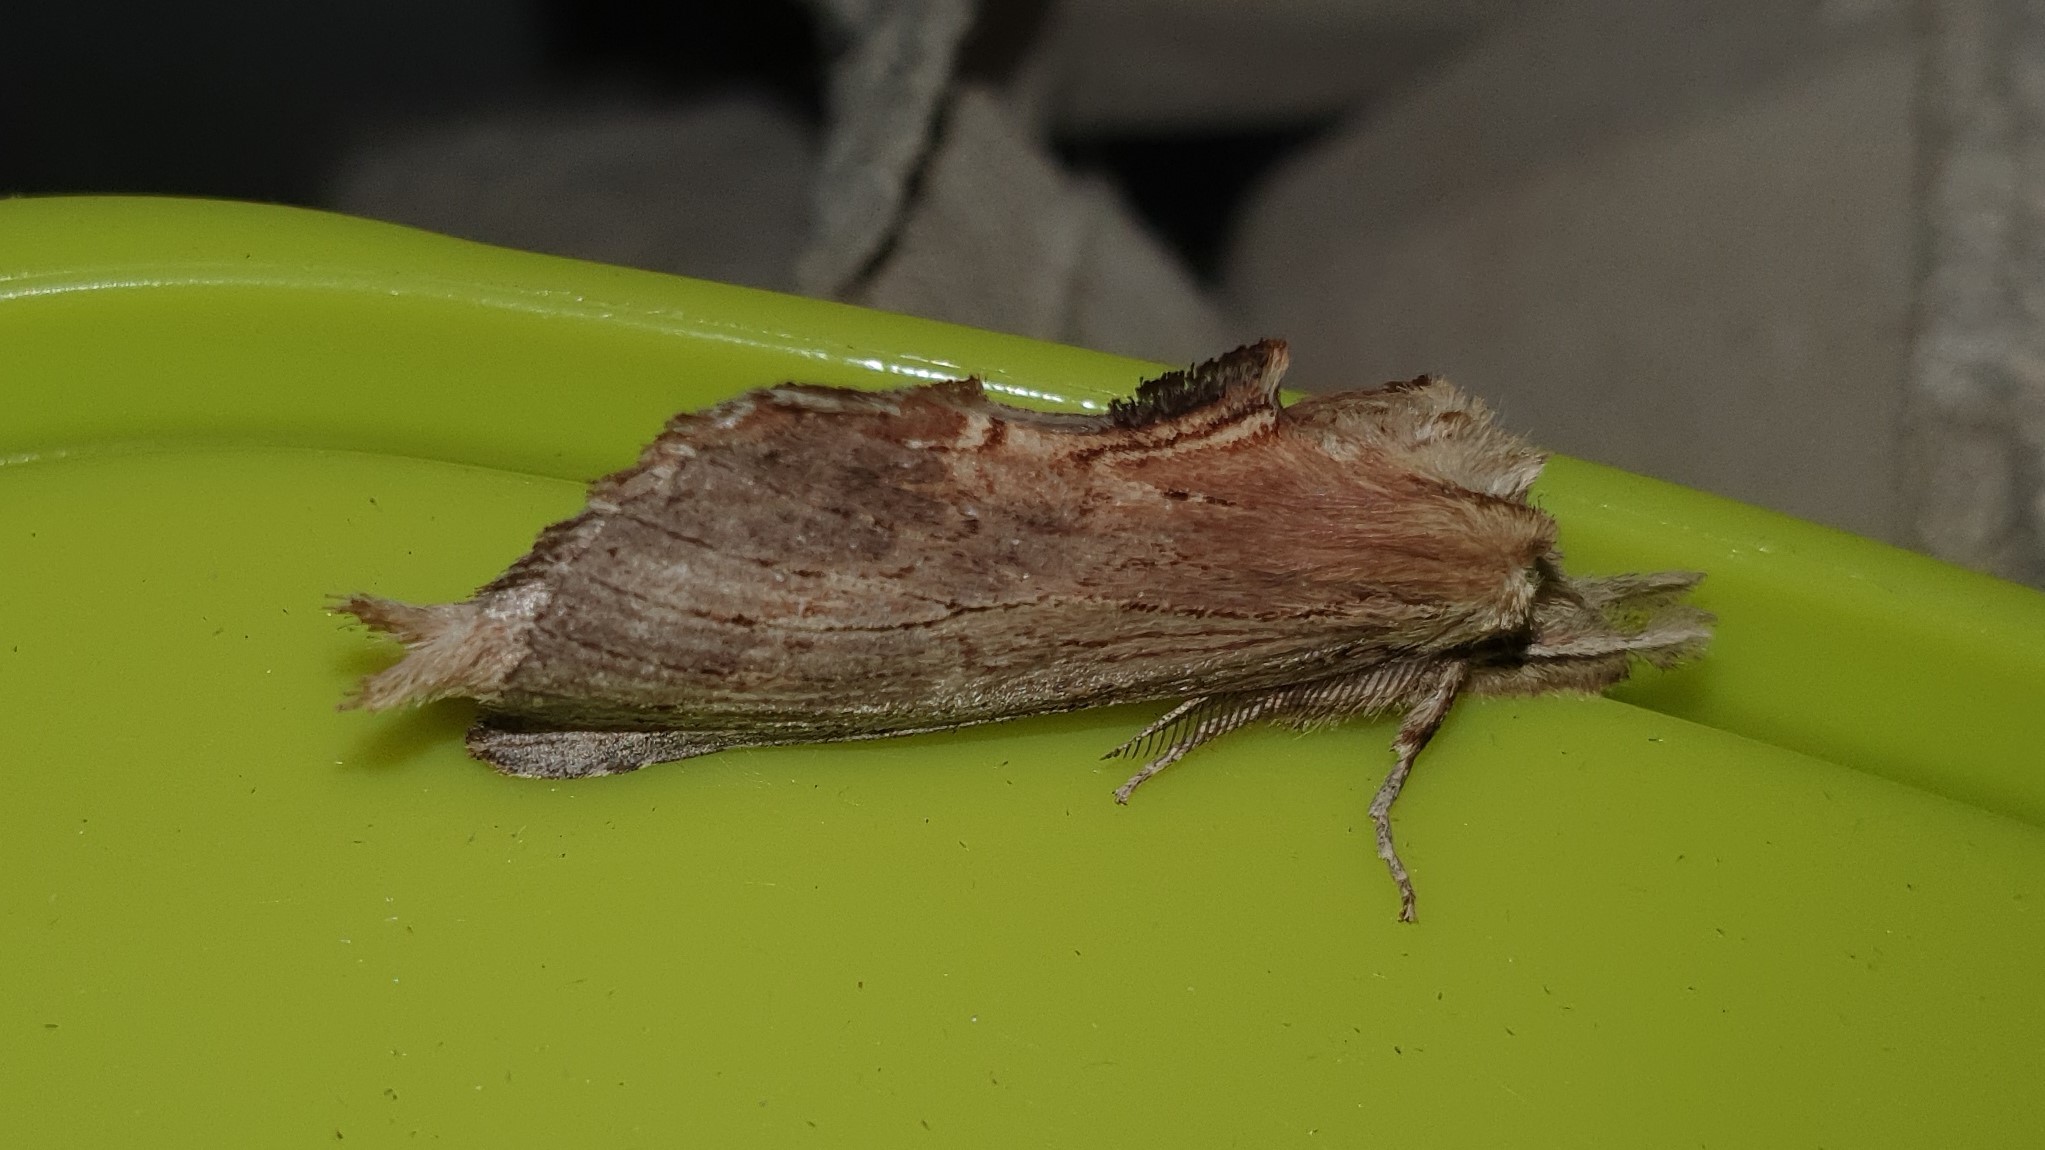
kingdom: Animalia
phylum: Arthropoda
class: Insecta
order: Lepidoptera
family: Notodontidae
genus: Pterostoma
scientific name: Pterostoma palpina
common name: Pale prominent
